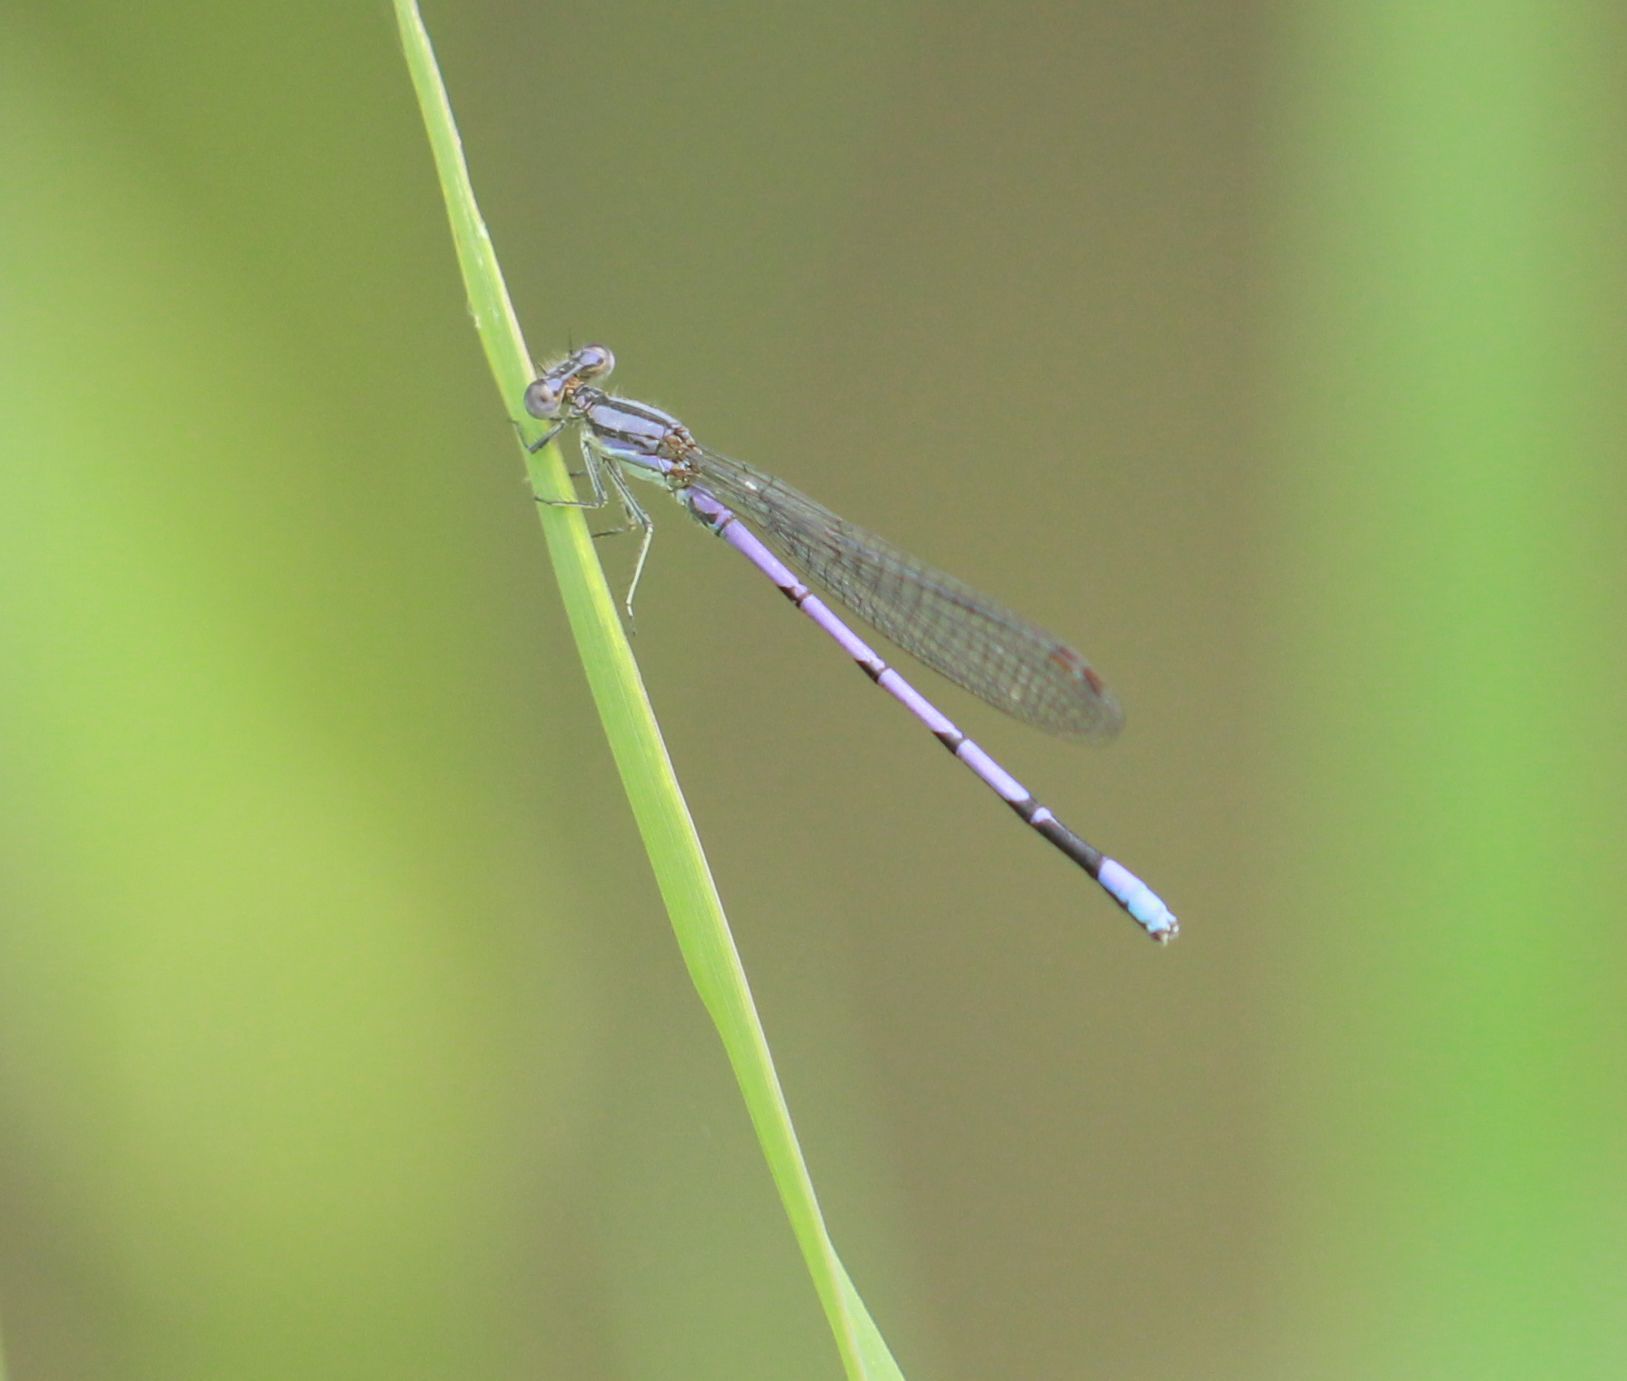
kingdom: Animalia
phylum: Arthropoda
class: Insecta
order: Odonata
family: Coenagrionidae
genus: Argia
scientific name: Argia fumipennis
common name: Variable dancer
